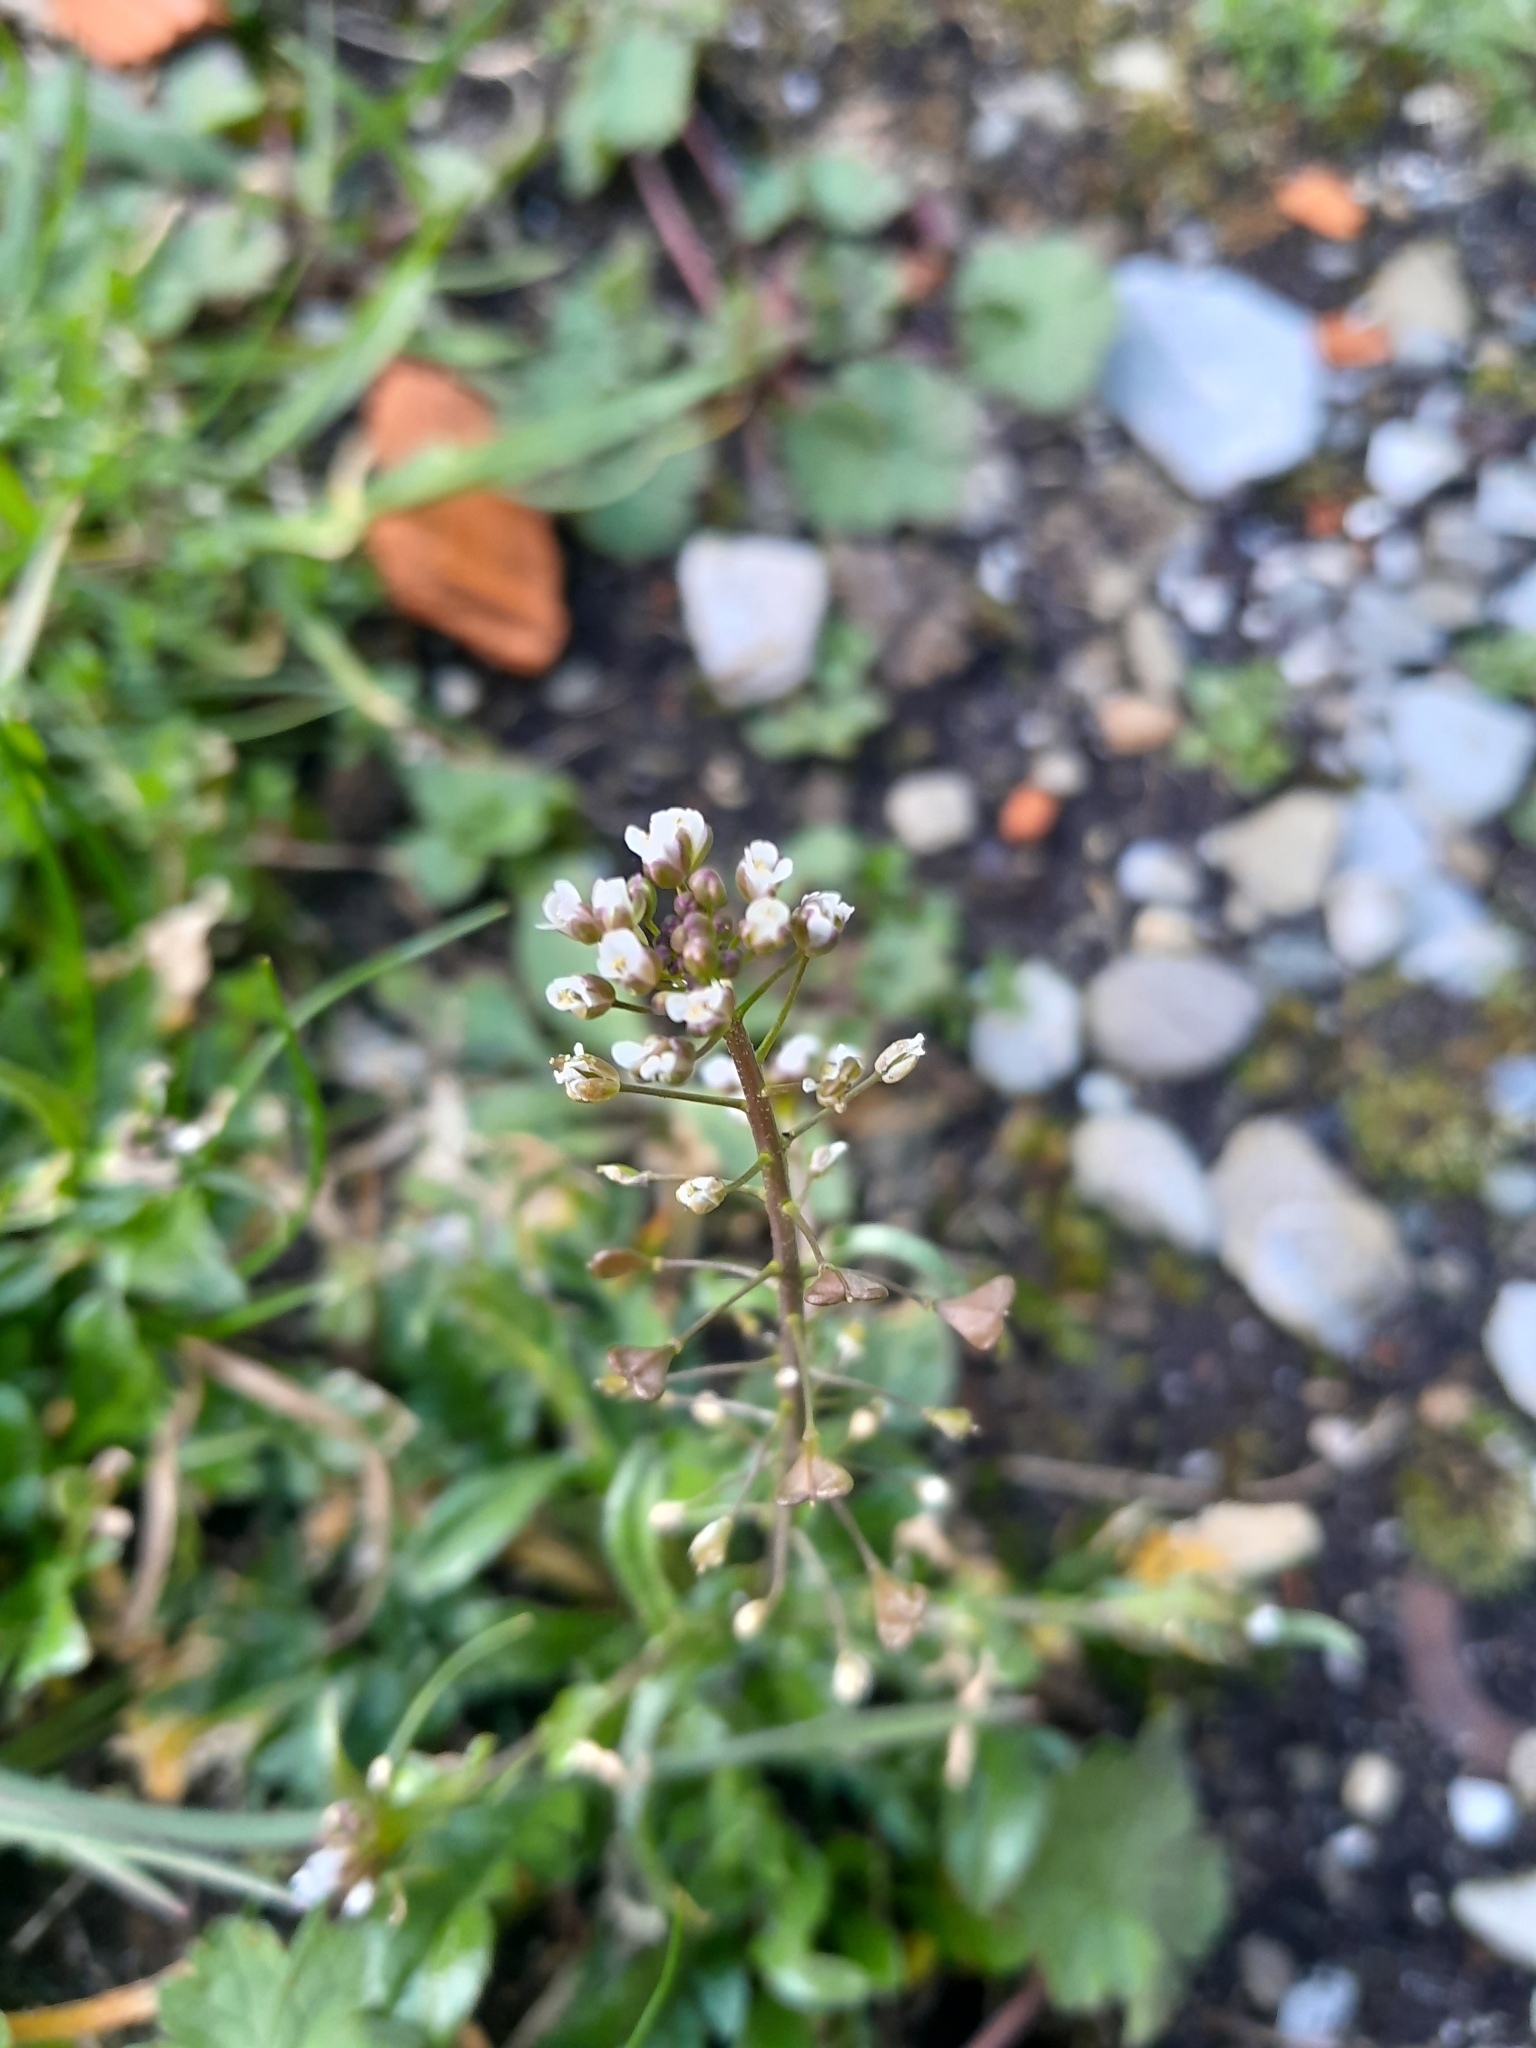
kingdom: Plantae
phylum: Tracheophyta
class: Magnoliopsida
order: Brassicales
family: Brassicaceae
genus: Capsella
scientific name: Capsella rubella
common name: Pink shepherd's-purse
